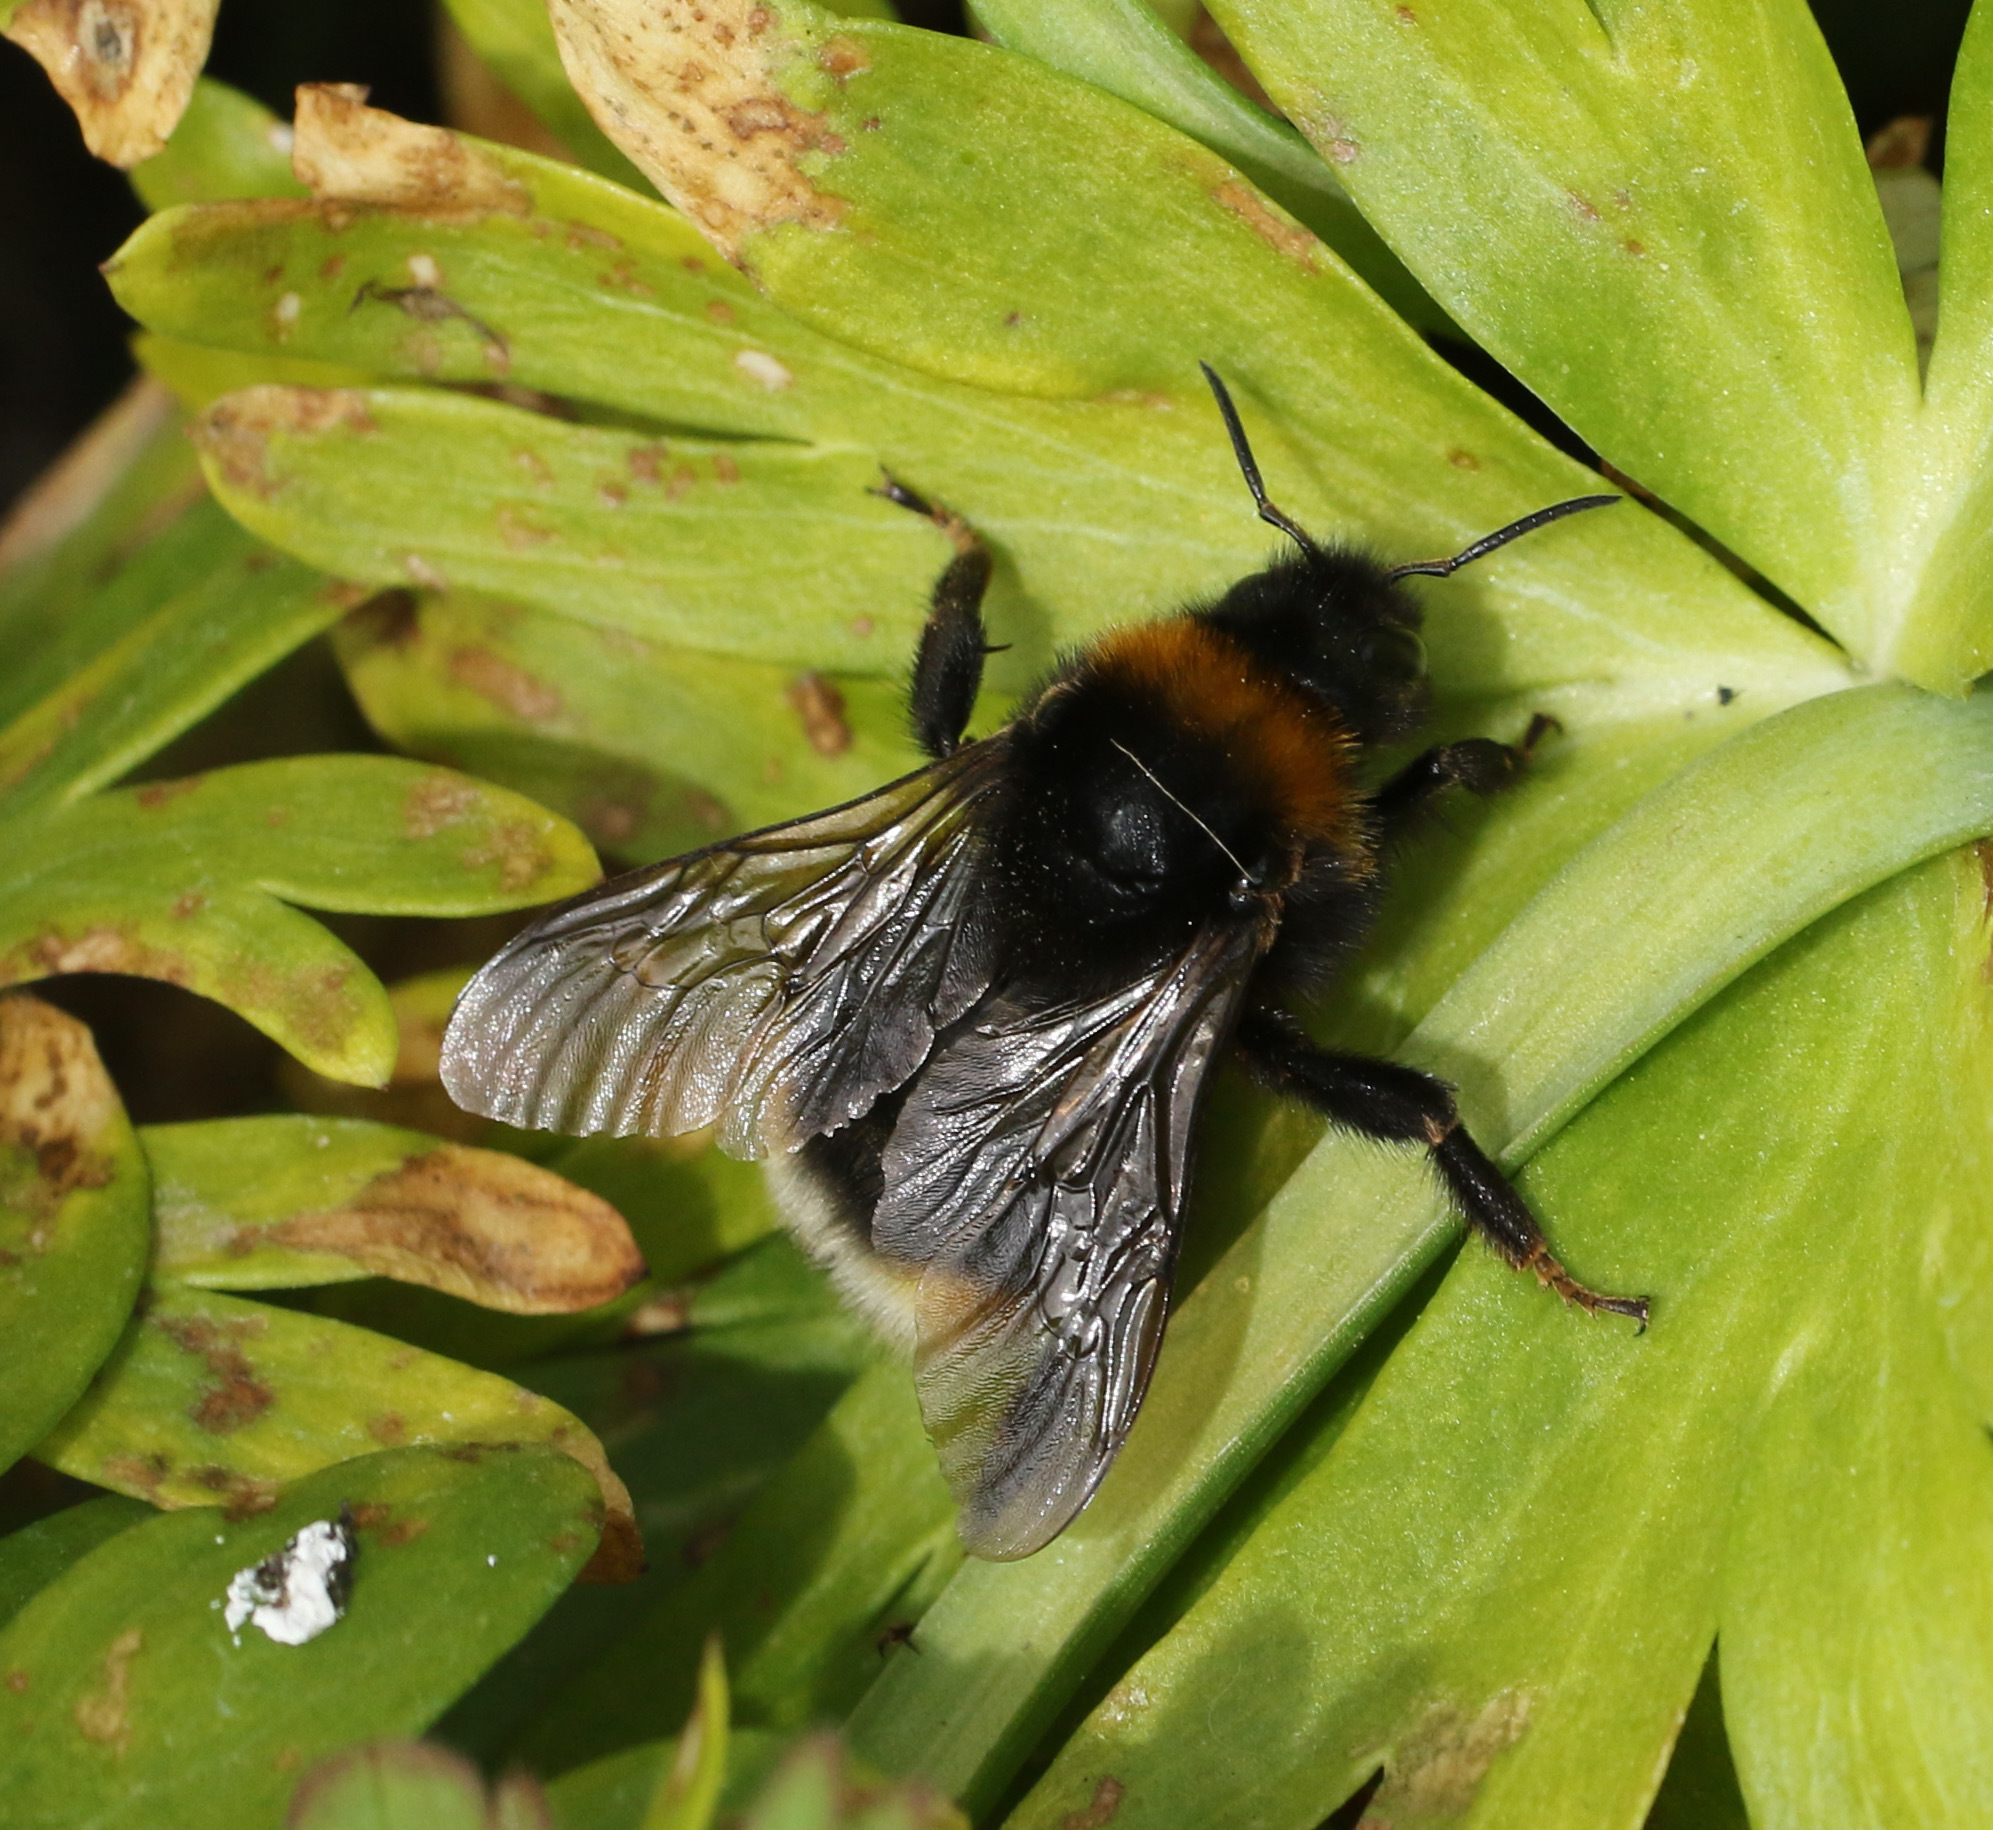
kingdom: Animalia
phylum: Arthropoda
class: Insecta
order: Hymenoptera
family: Apidae
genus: Bombus
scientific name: Bombus vestalis
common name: Vestal cuckoo bee
